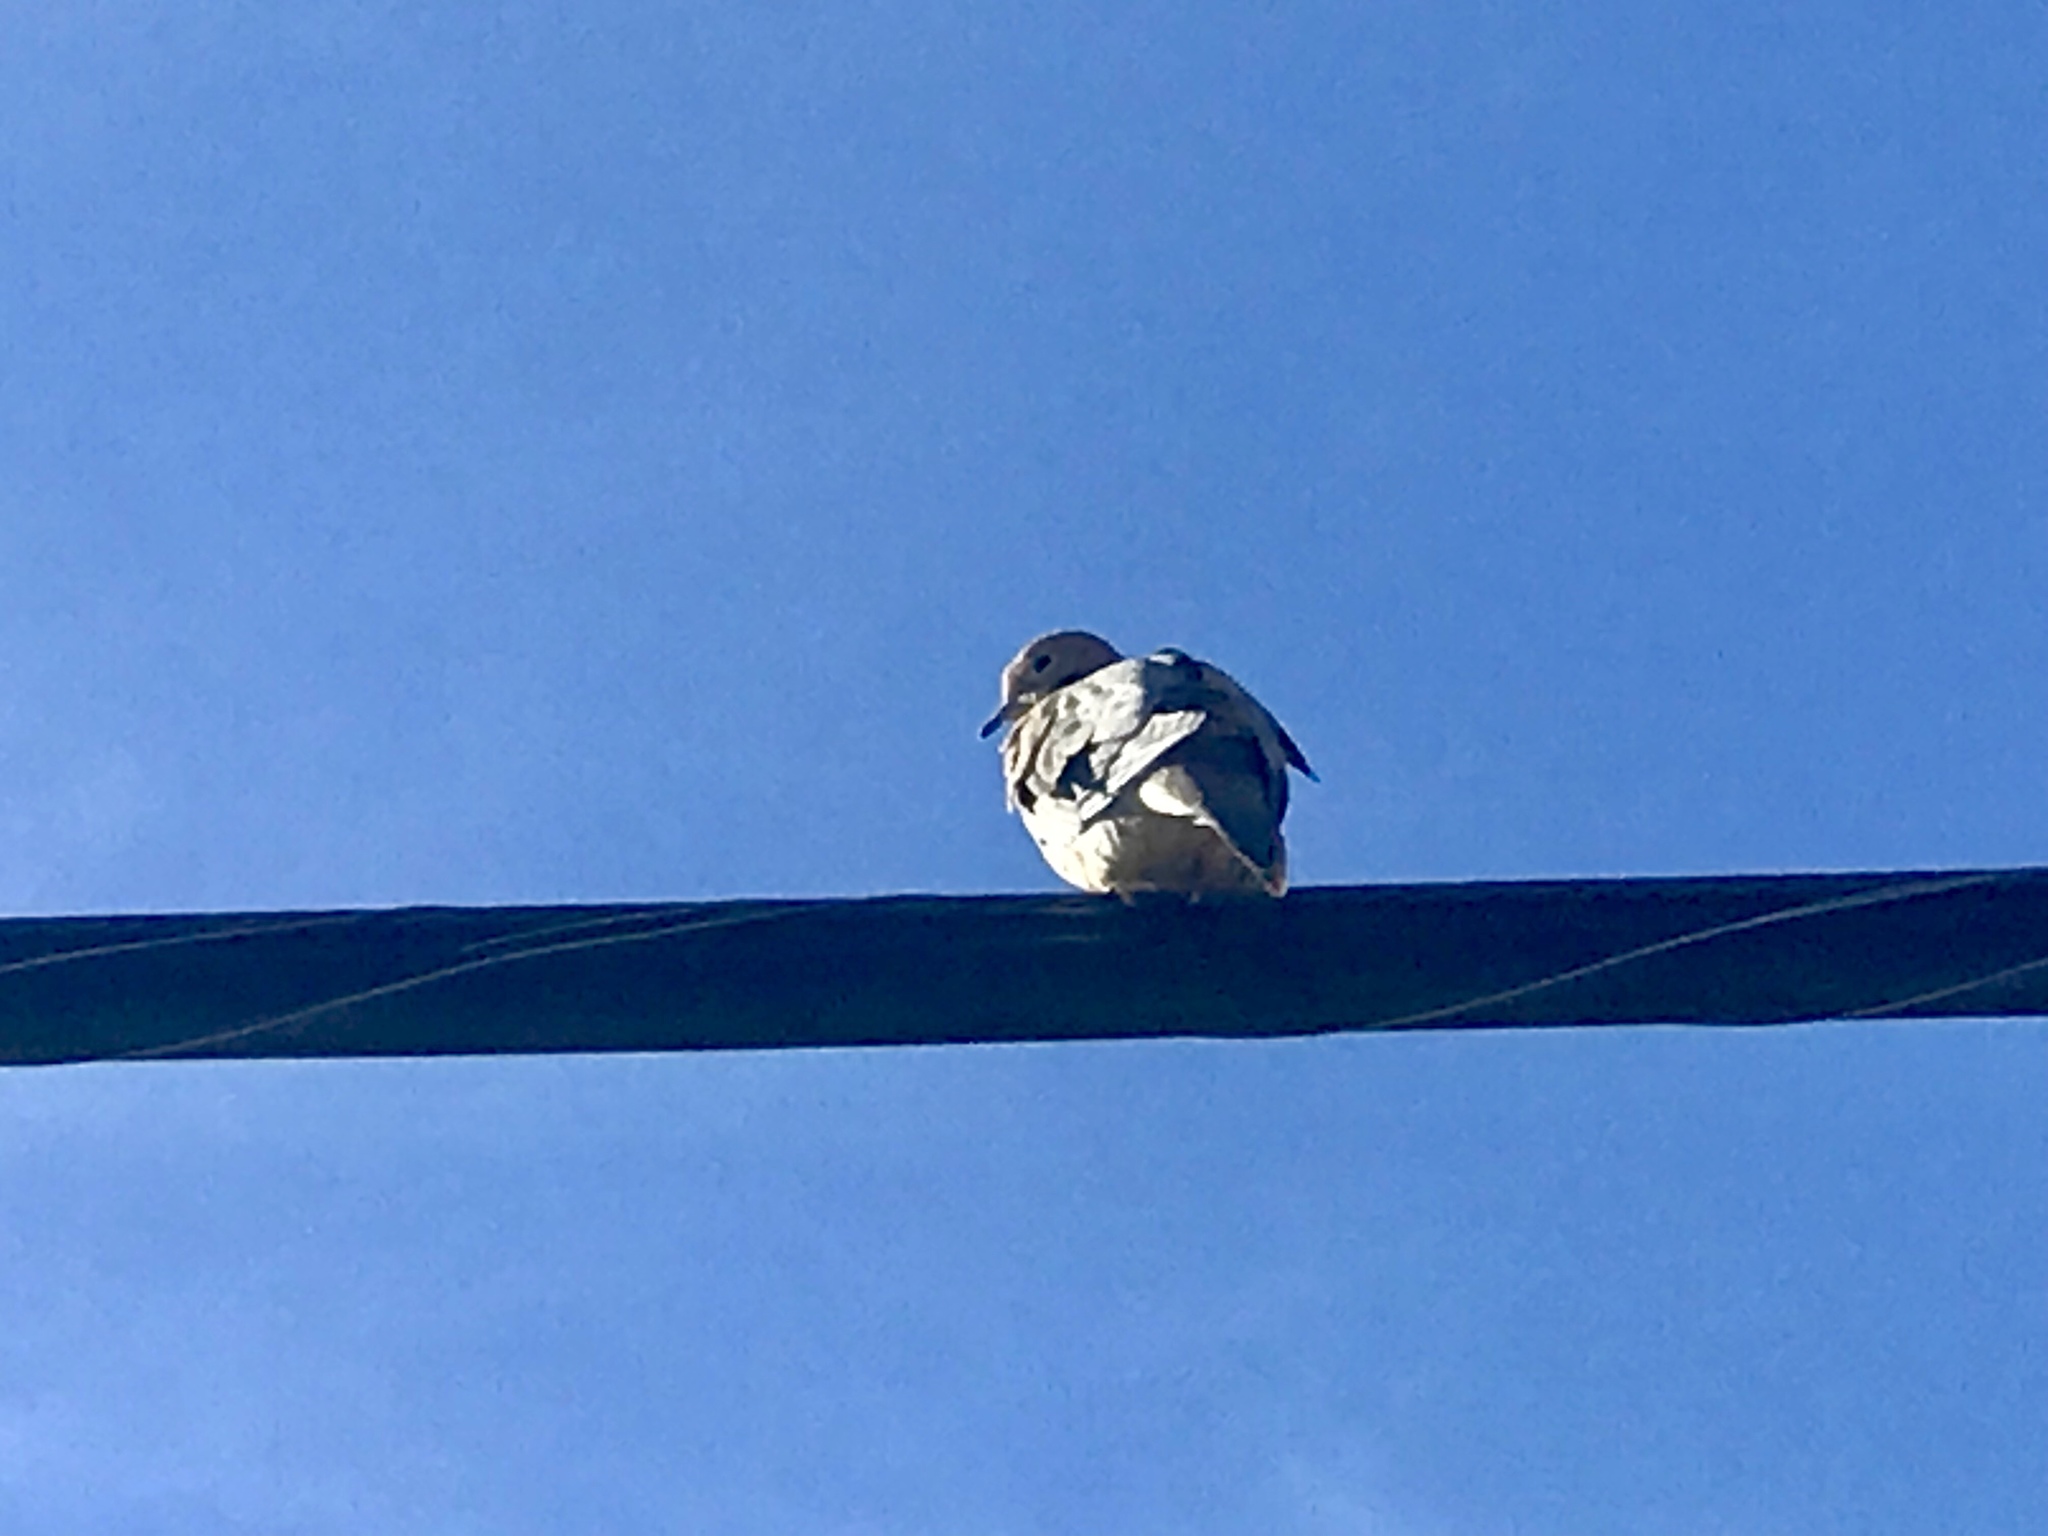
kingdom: Animalia
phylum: Chordata
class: Aves
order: Columbiformes
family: Columbidae
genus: Zenaida
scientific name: Zenaida macroura
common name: Mourning dove
